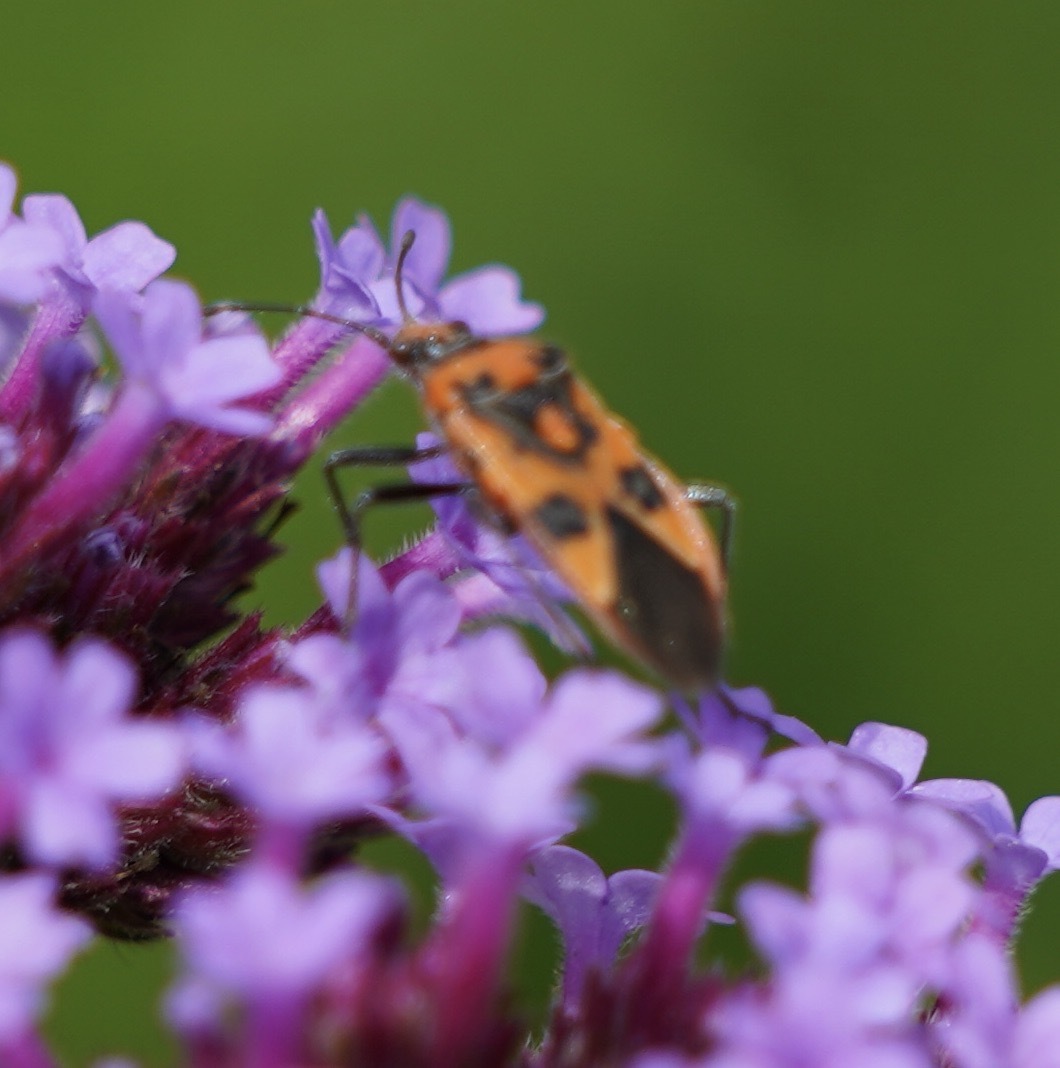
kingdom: Animalia
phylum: Arthropoda
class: Insecta
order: Hemiptera
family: Rhopalidae
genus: Corizus
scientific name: Corizus hyoscyami
